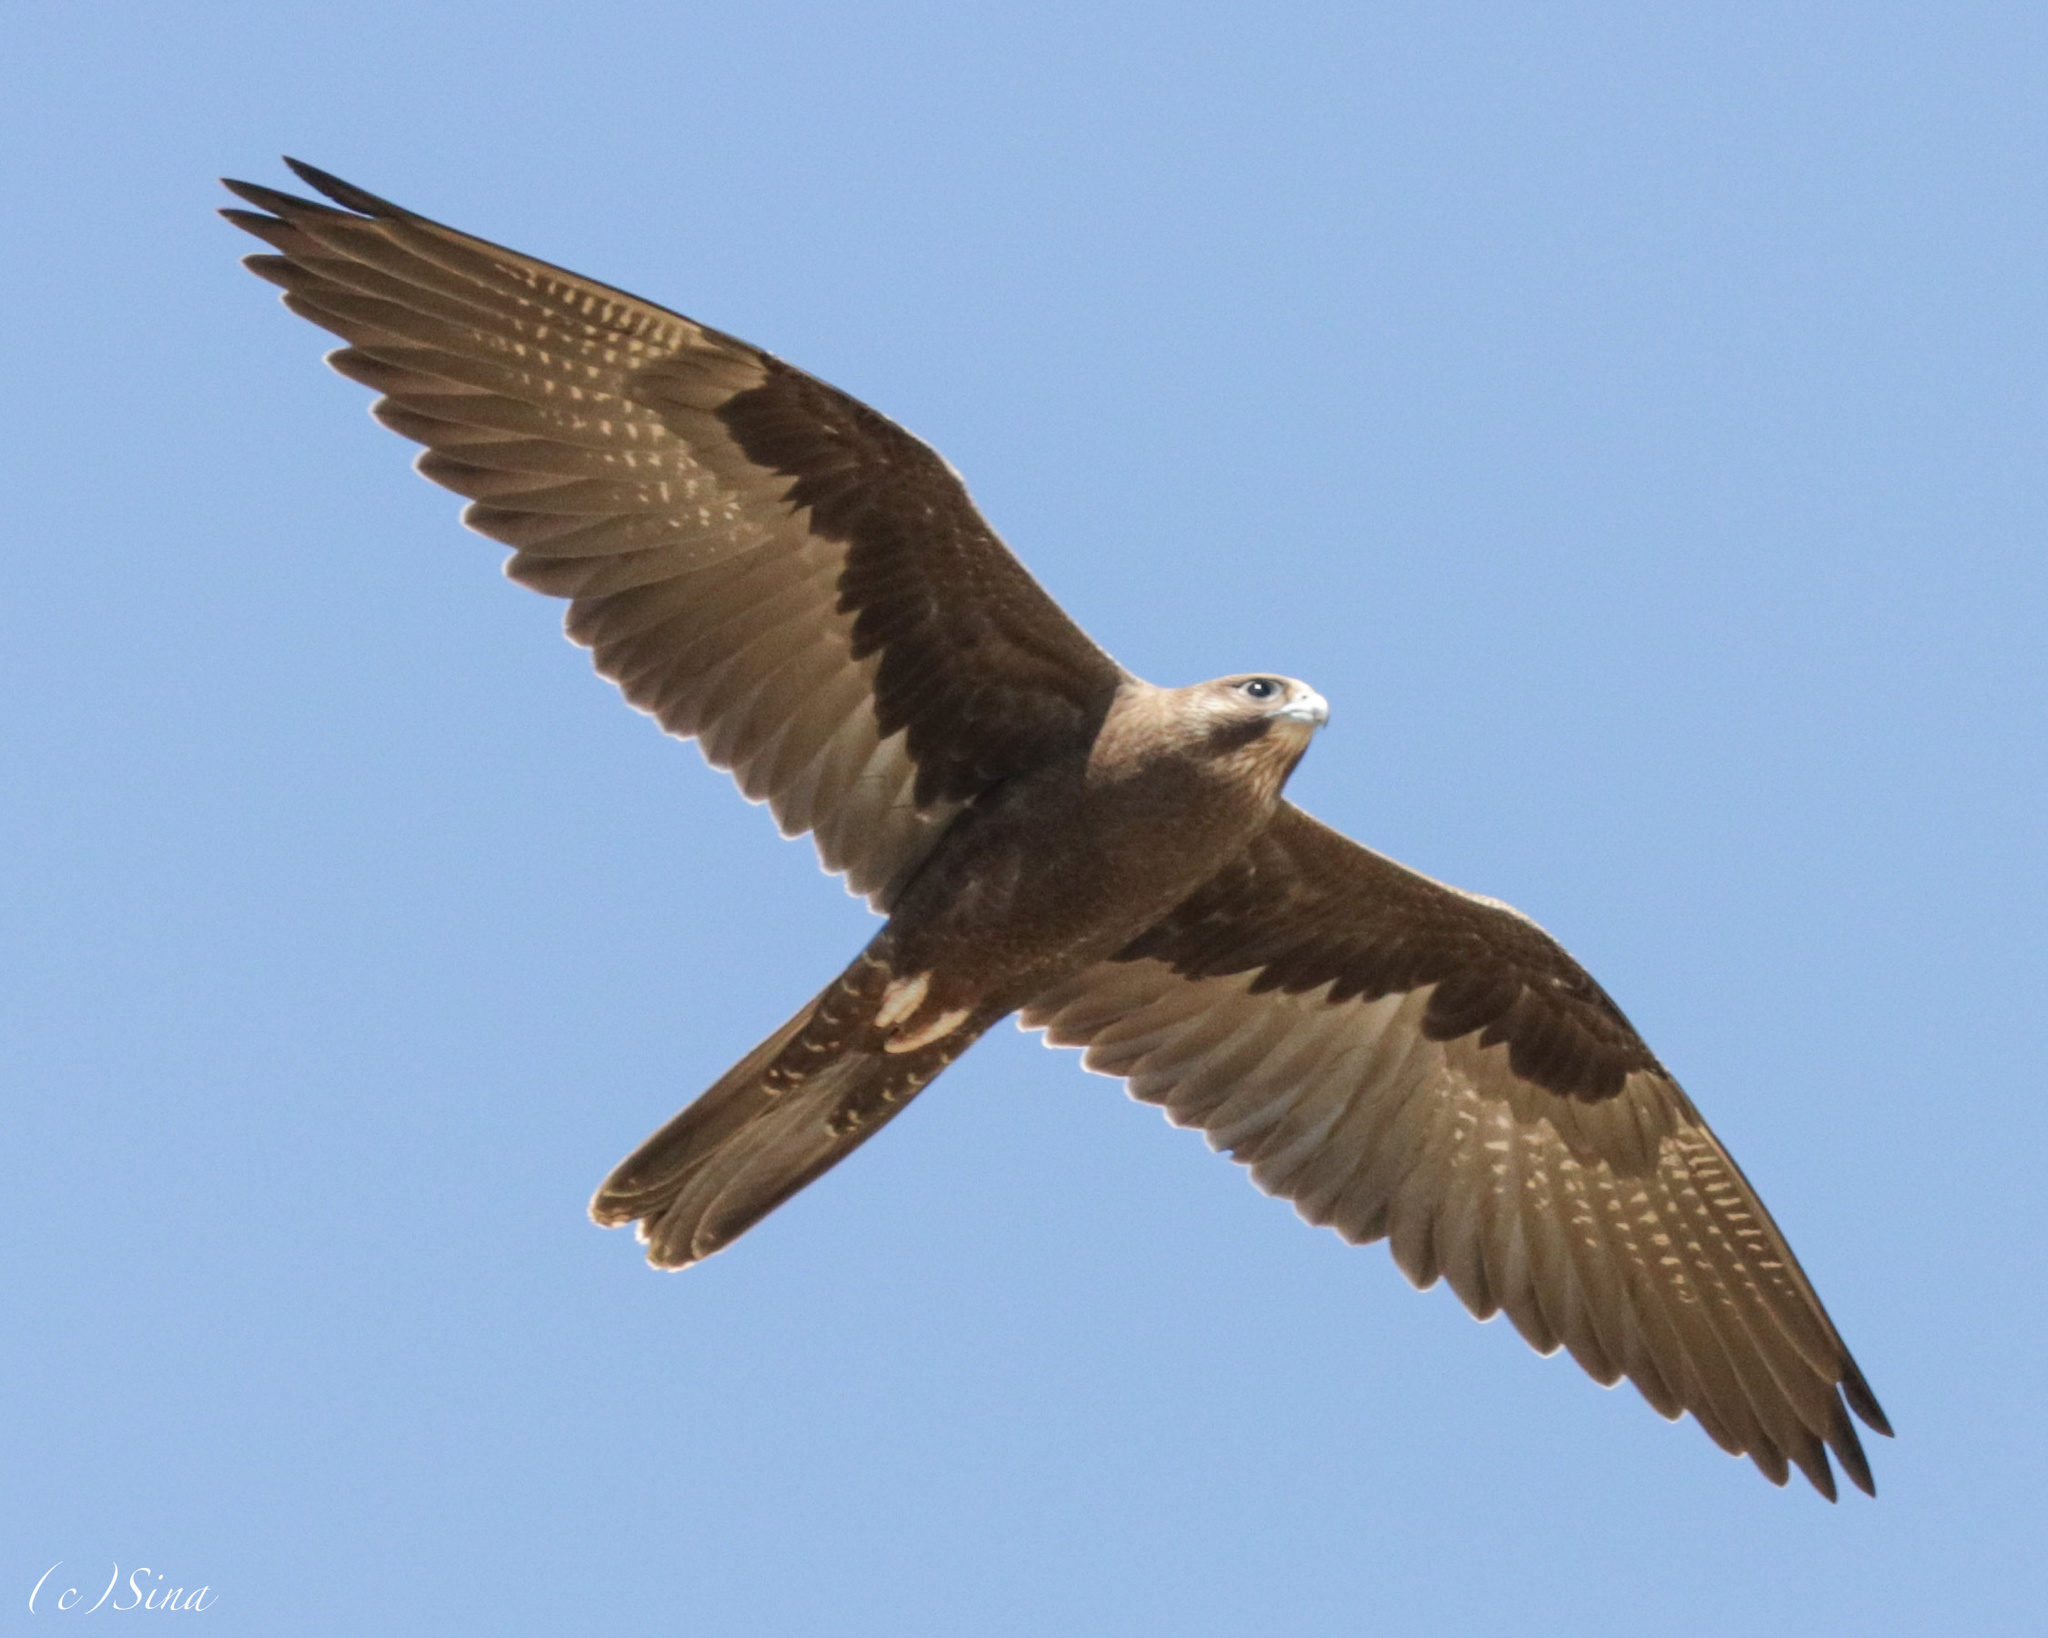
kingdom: Animalia
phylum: Chordata
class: Aves
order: Falconiformes
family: Falconidae
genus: Falco
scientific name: Falco subniger
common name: Black falcon
